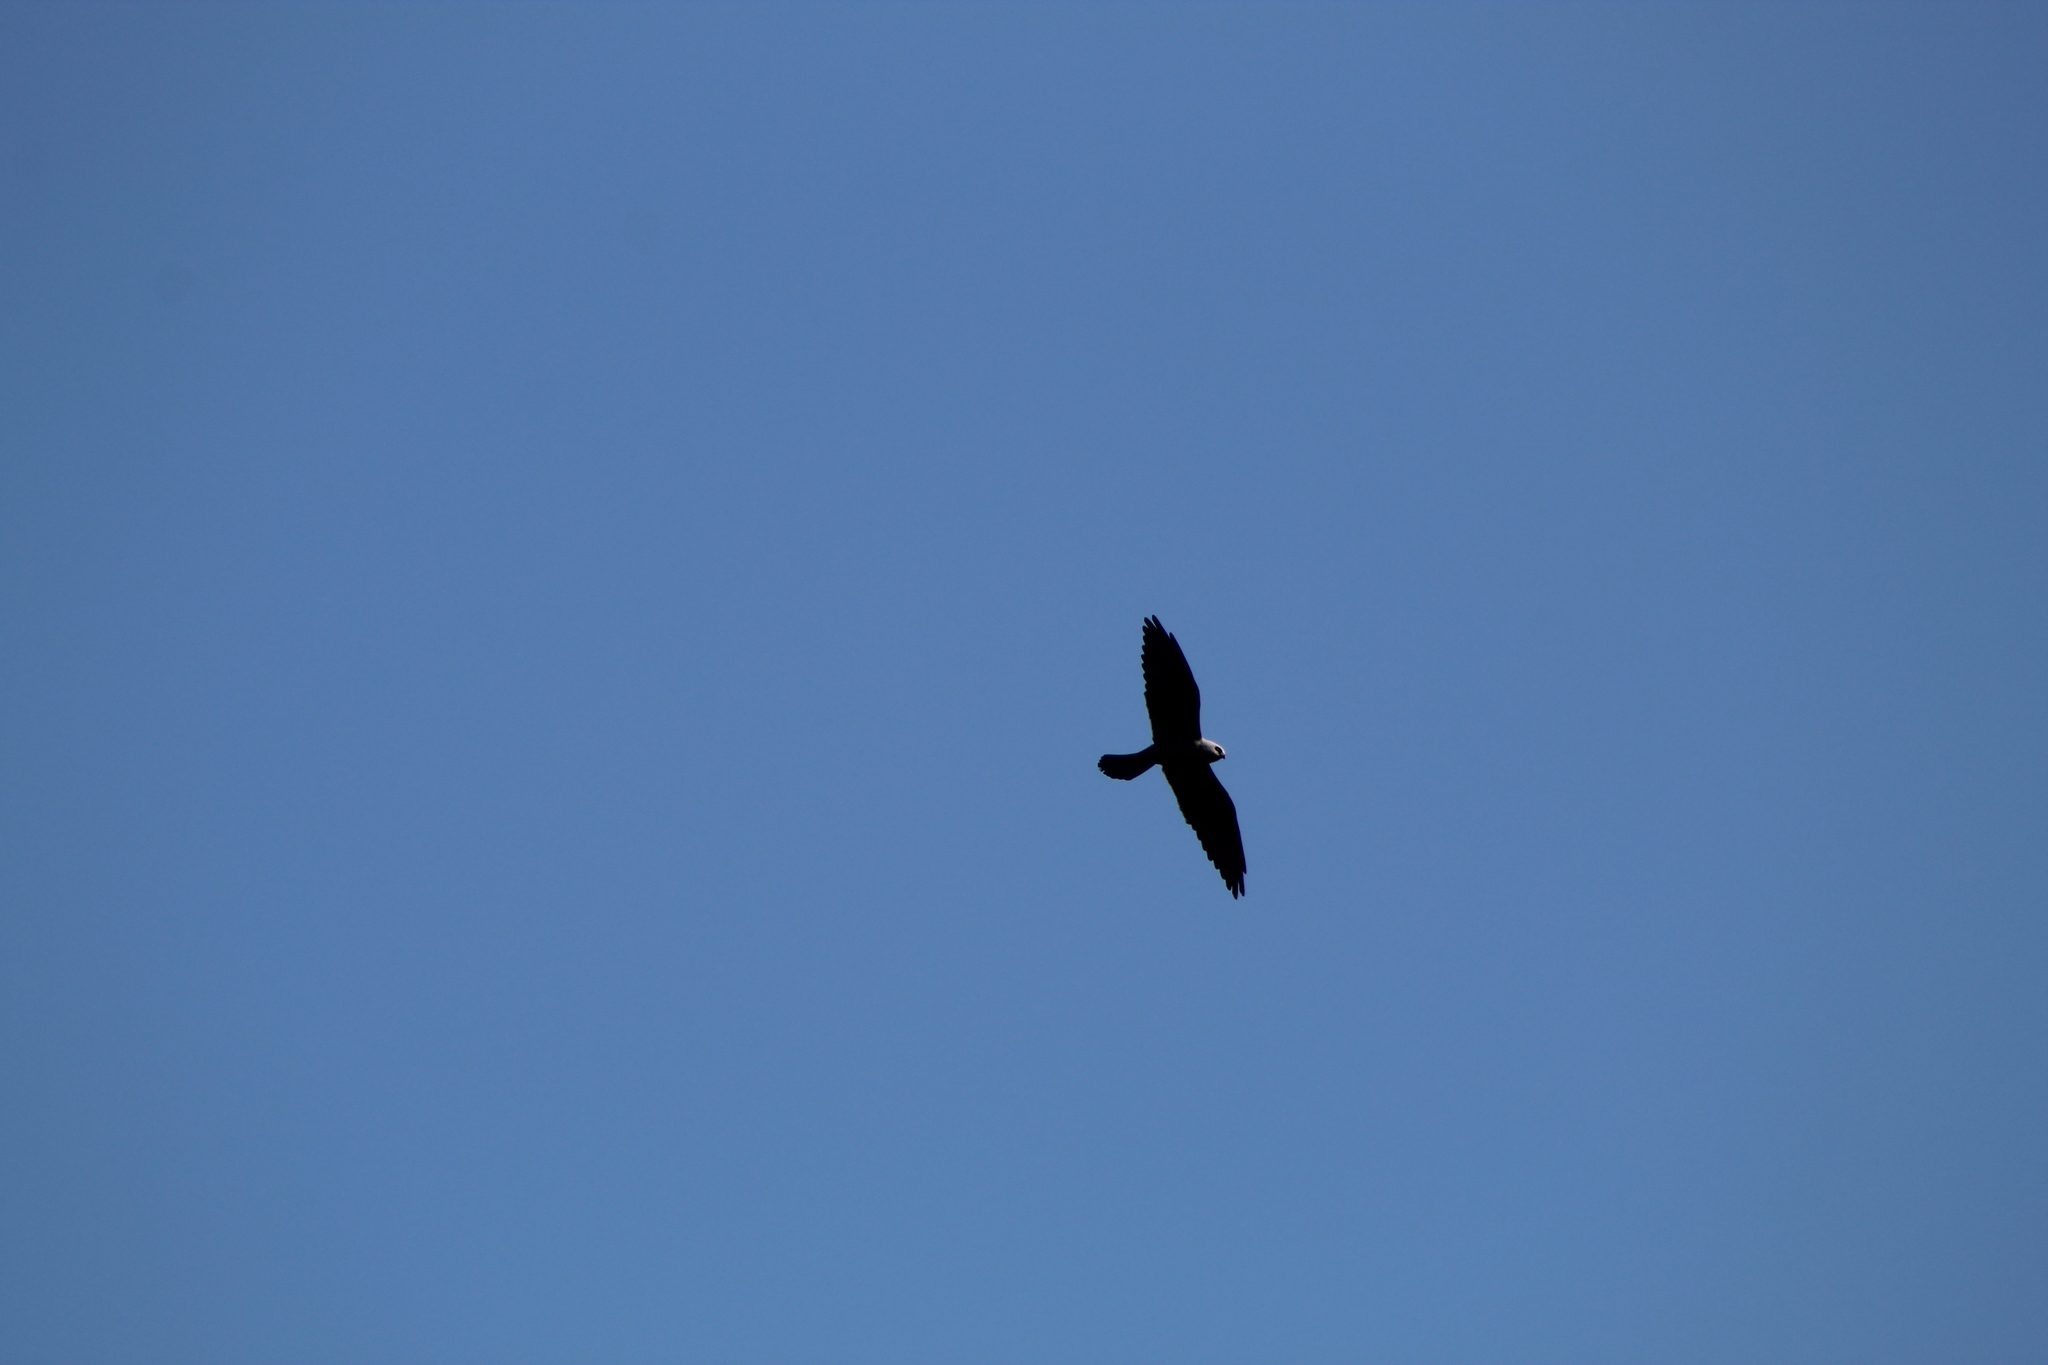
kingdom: Animalia
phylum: Chordata
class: Aves
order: Accipitriformes
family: Accipitridae
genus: Ictinia
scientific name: Ictinia mississippiensis
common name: Mississippi kite
